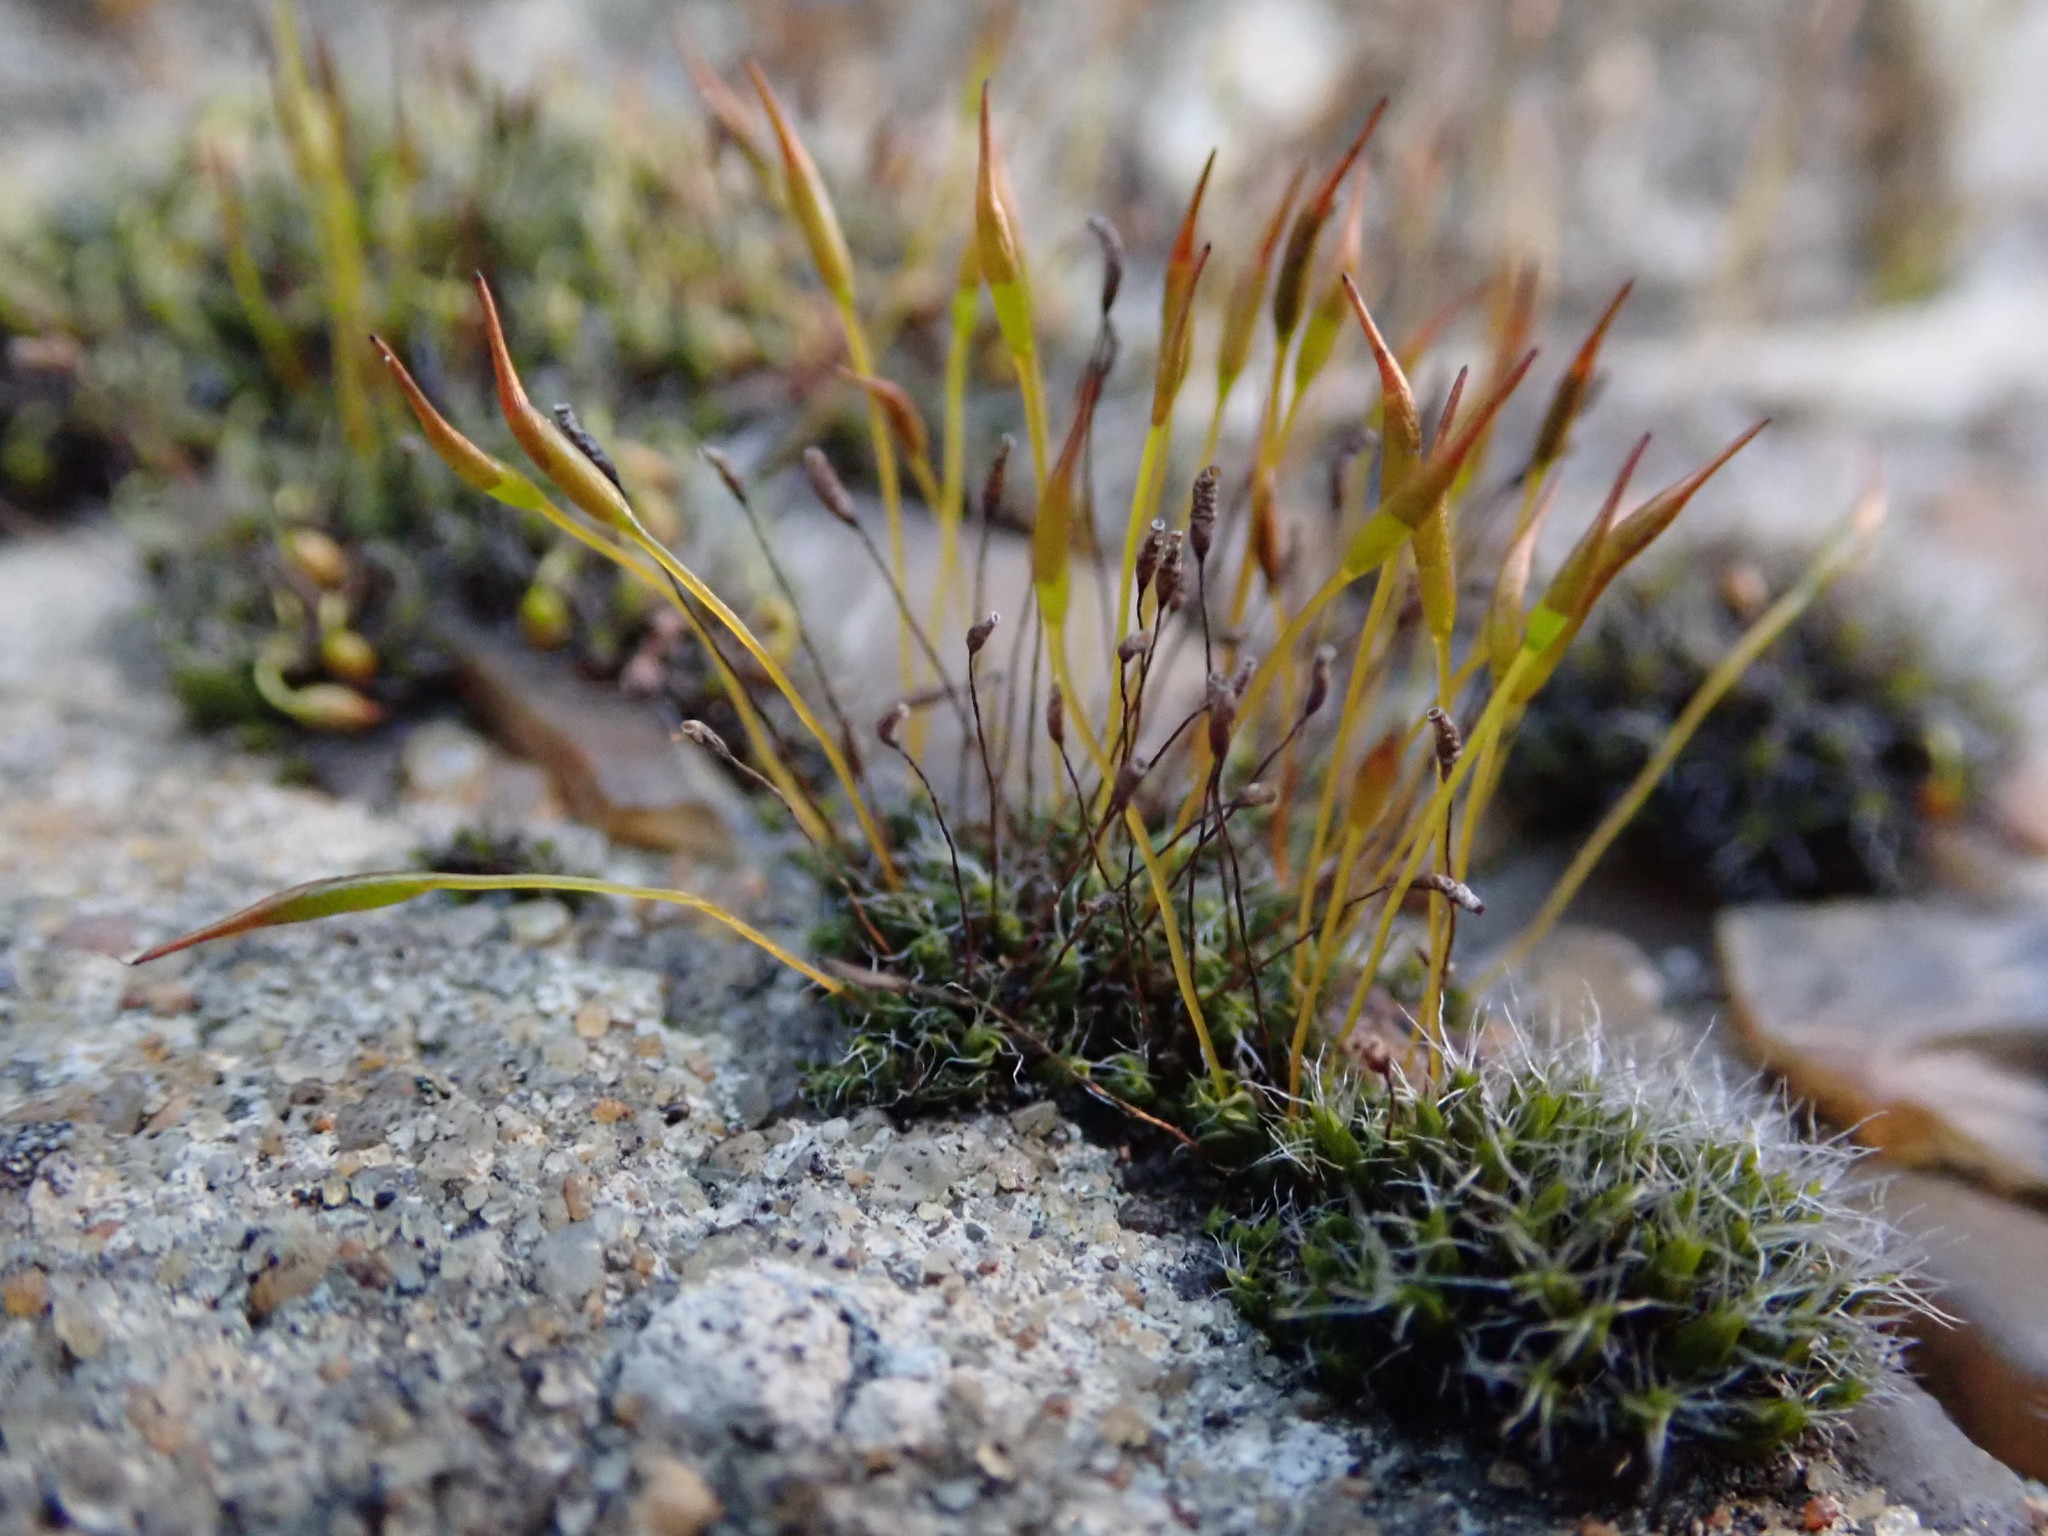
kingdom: Plantae
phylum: Bryophyta
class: Bryopsida
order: Pottiales
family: Pottiaceae
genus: Tortula
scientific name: Tortula muralis
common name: Wall screw-moss
